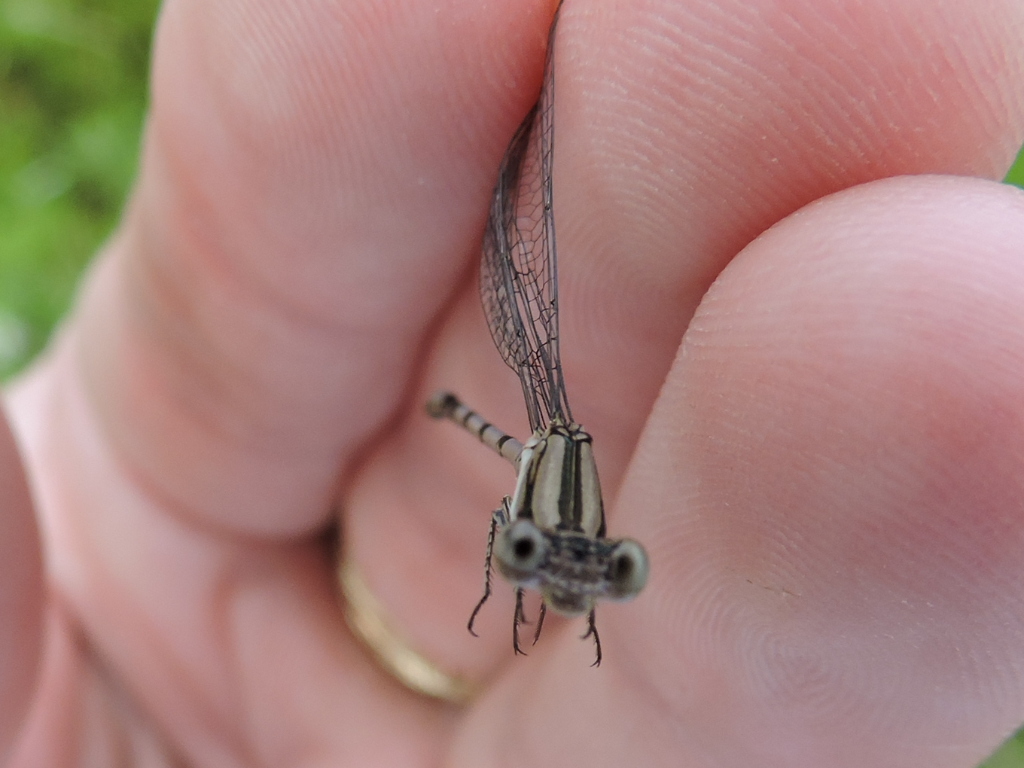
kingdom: Animalia
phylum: Arthropoda
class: Insecta
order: Odonata
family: Coenagrionidae
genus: Argia
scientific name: Argia nahuana
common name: Aztec dancer
